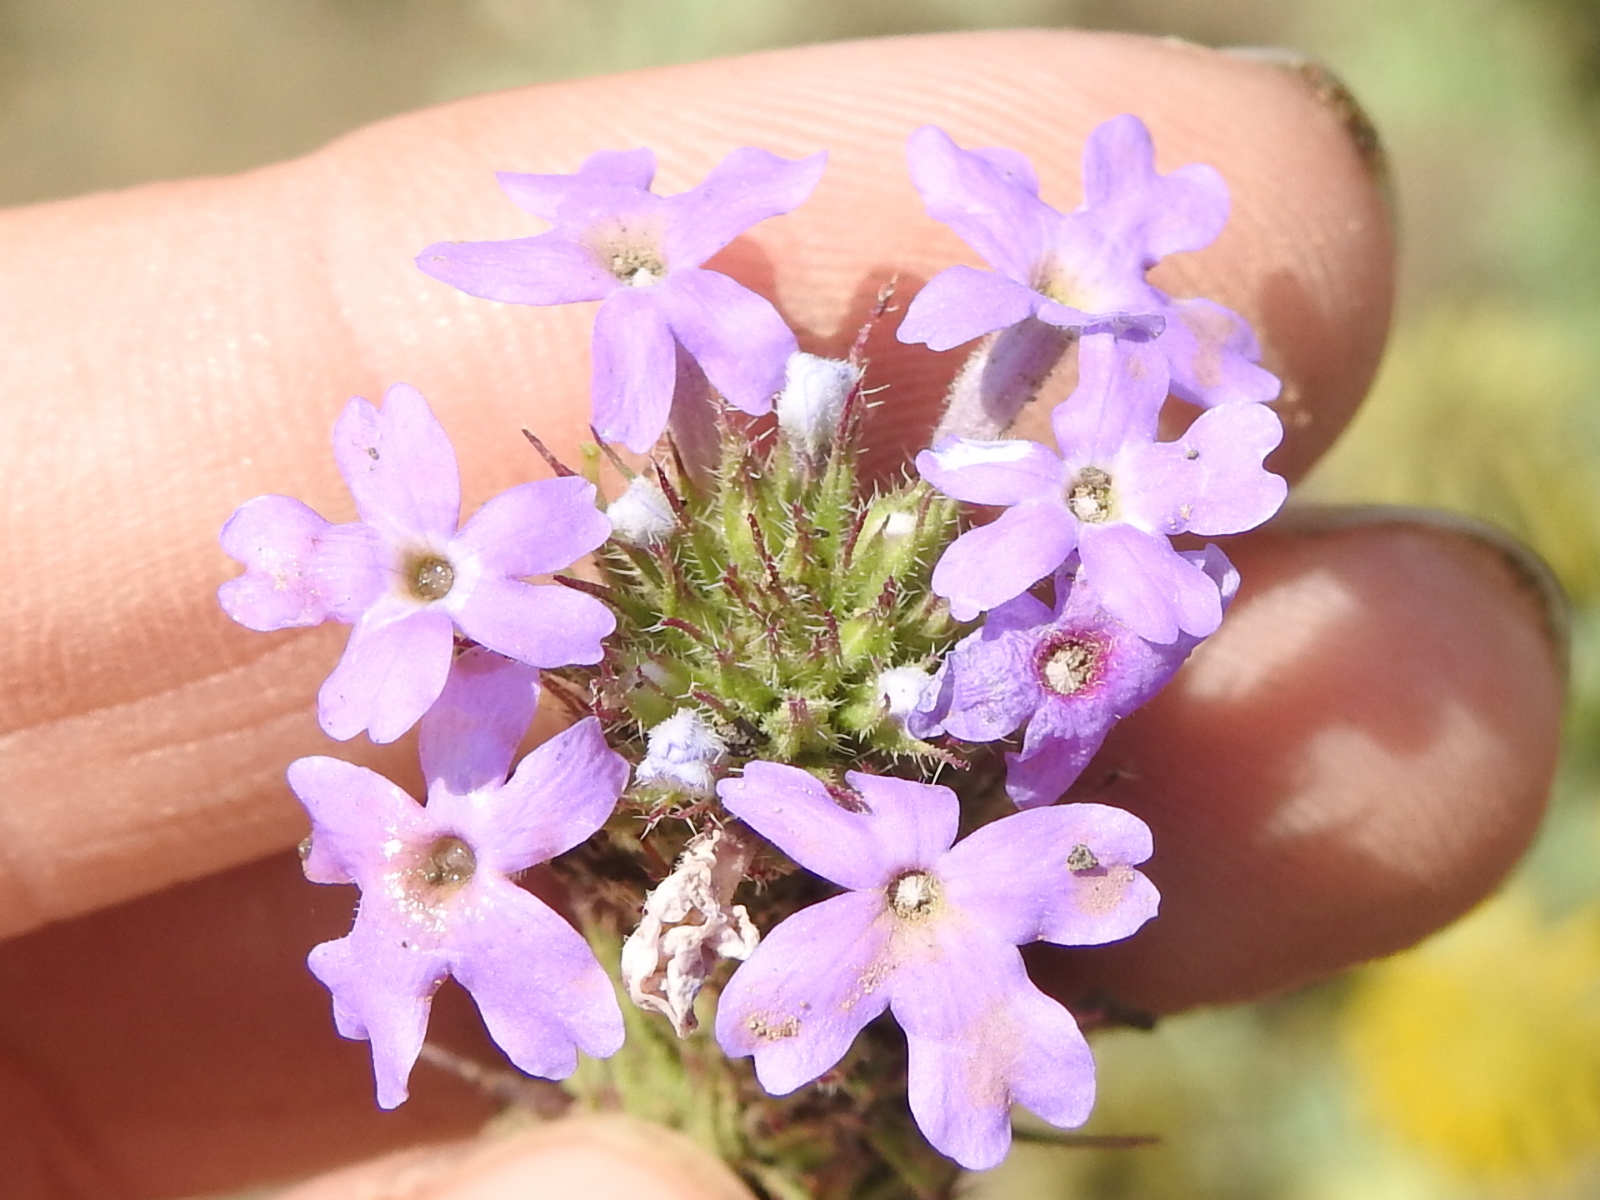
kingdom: Plantae
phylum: Tracheophyta
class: Magnoliopsida
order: Lamiales
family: Verbenaceae
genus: Verbena
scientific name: Verbena bipinnatifida
